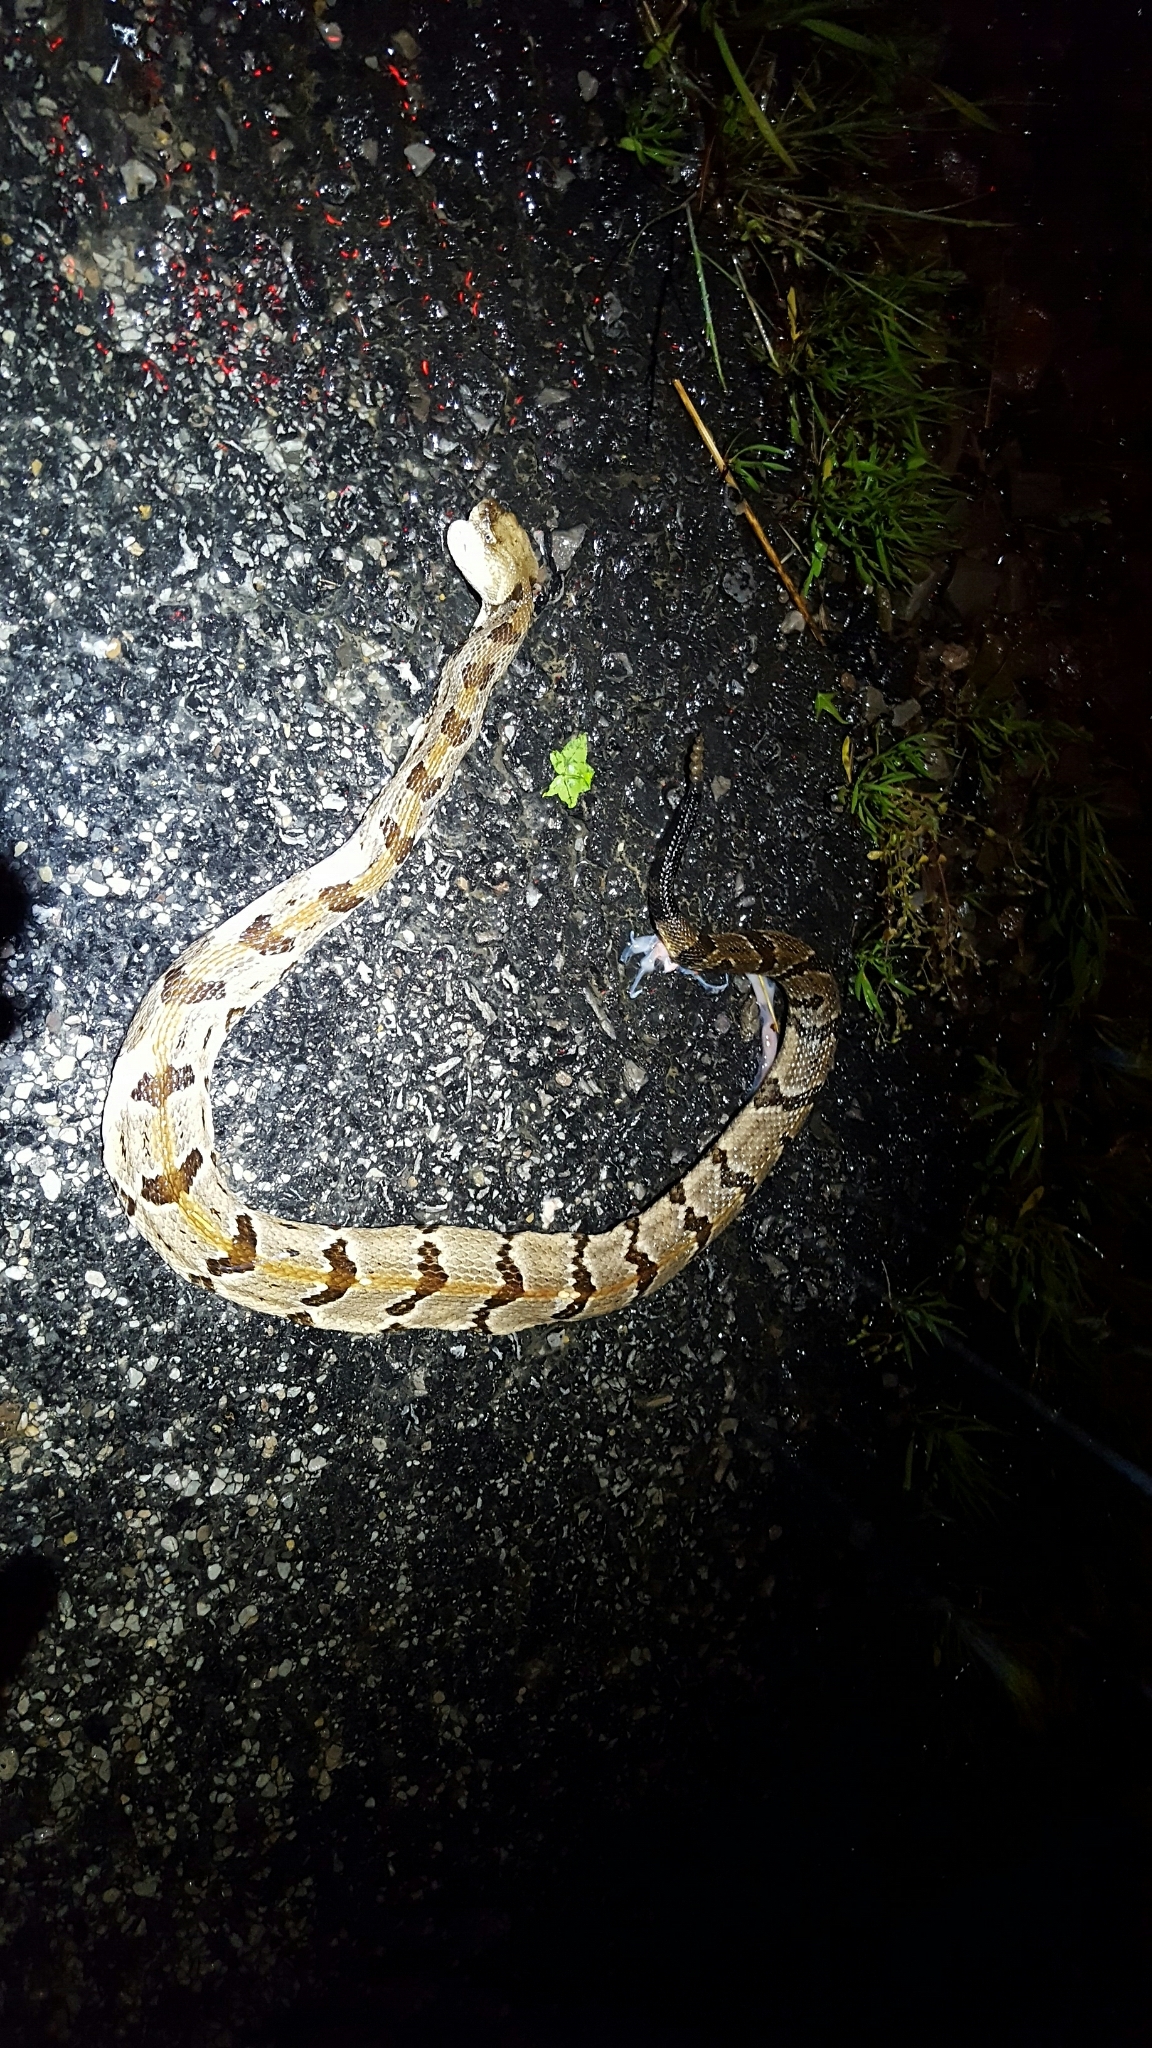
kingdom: Animalia
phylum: Chordata
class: Squamata
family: Viperidae
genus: Crotalus
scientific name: Crotalus horridus
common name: Timber rattlesnake
